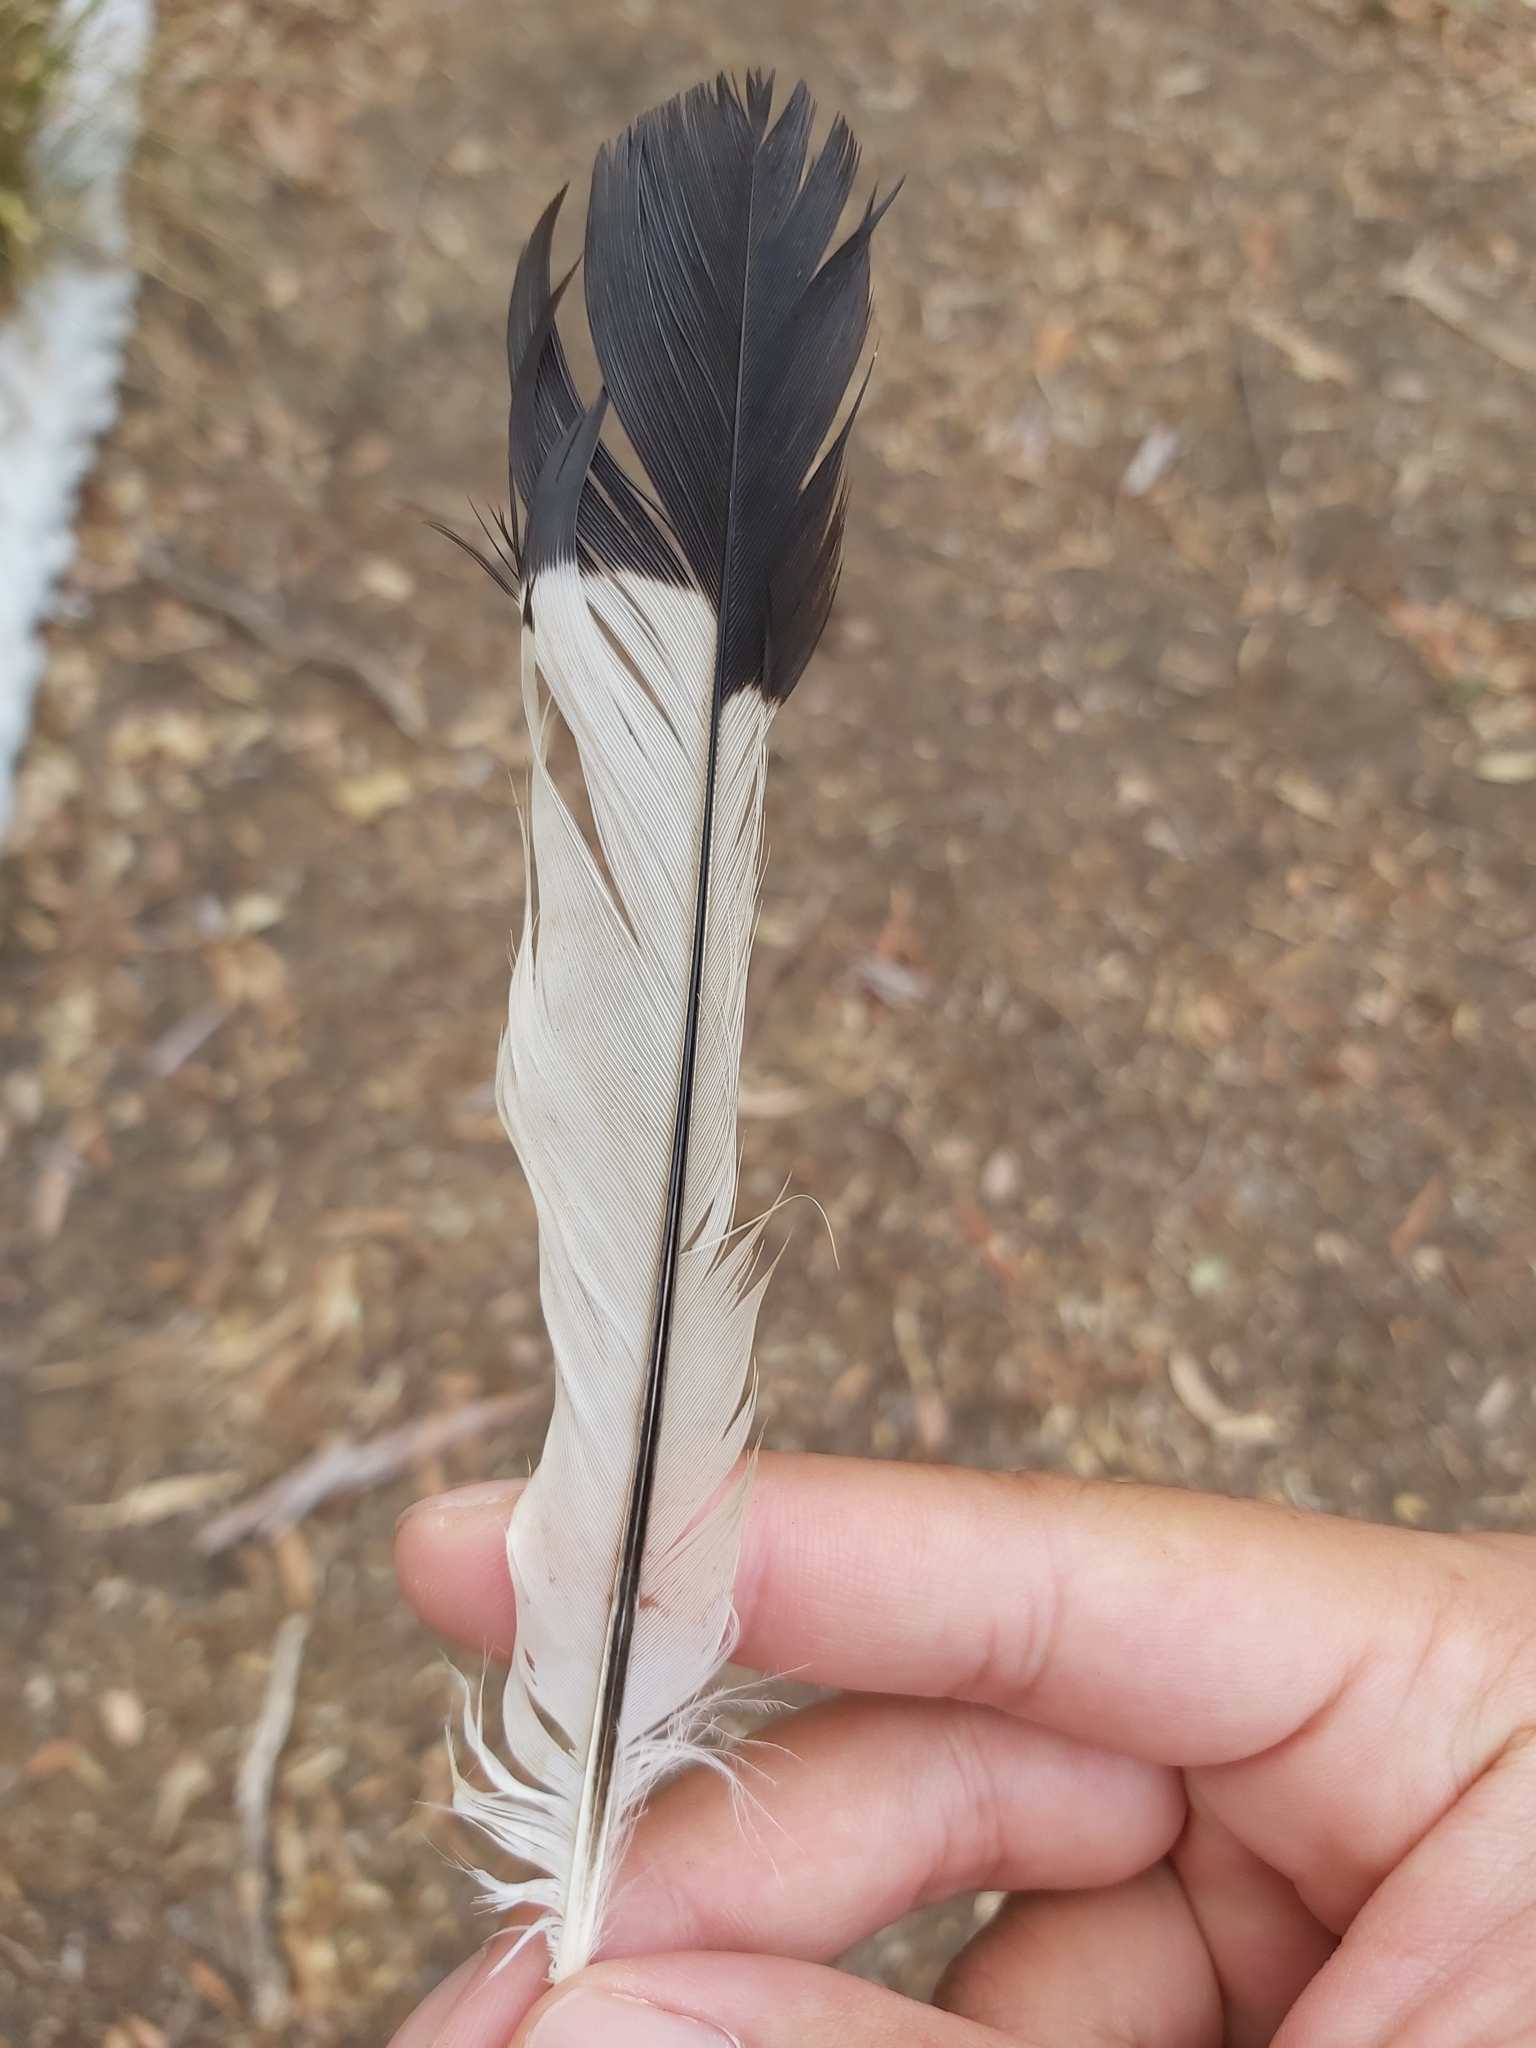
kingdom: Animalia
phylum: Chordata
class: Aves
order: Passeriformes
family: Cracticidae
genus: Gymnorhina
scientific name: Gymnorhina tibicen
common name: Australian magpie
